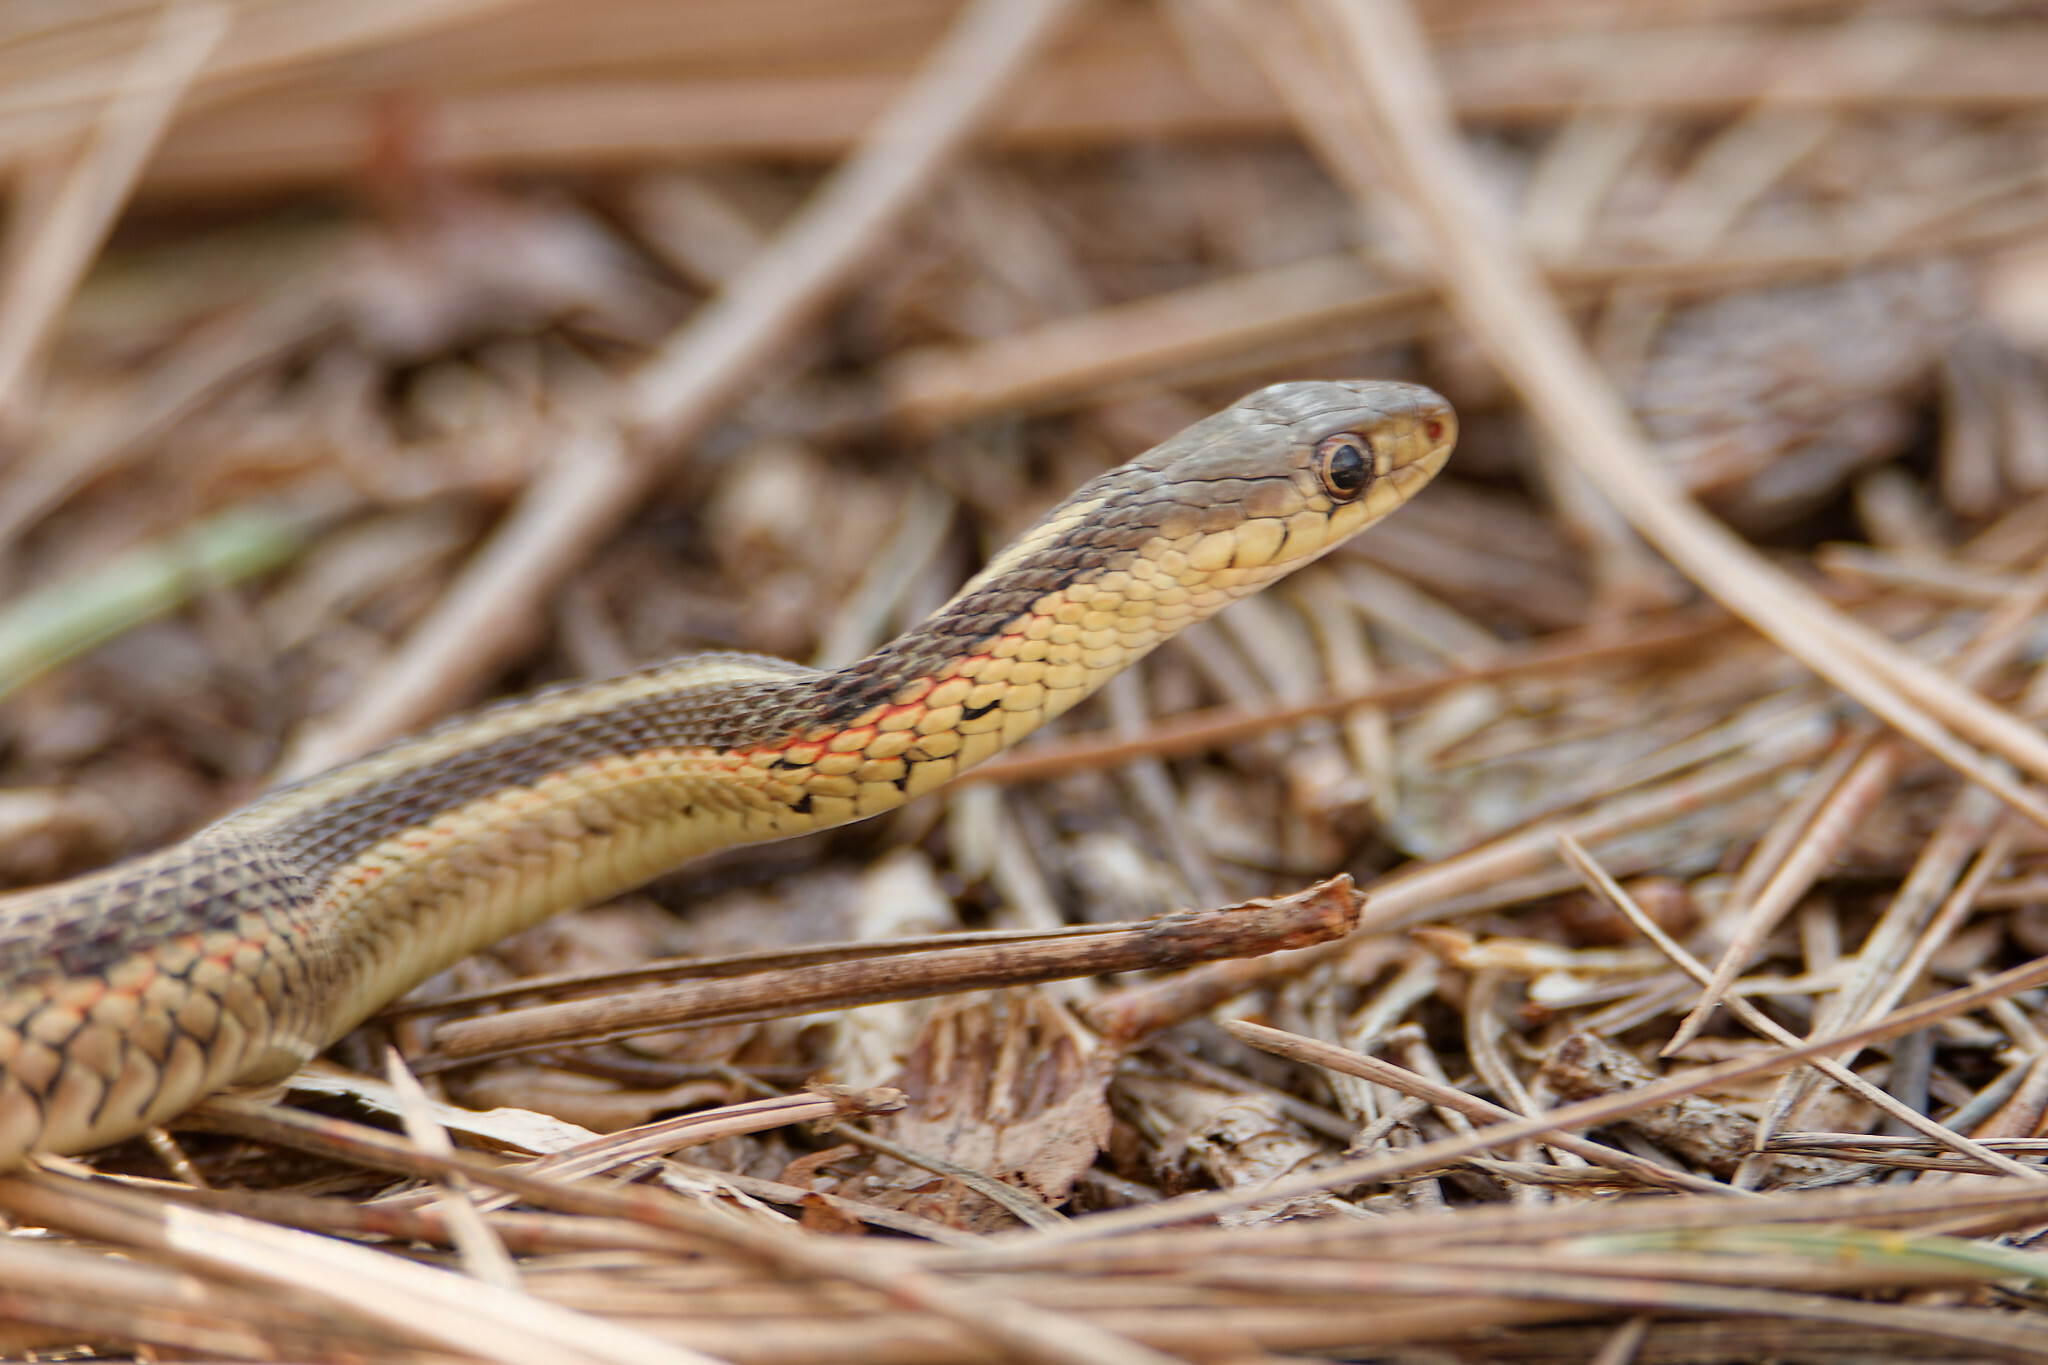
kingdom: Animalia
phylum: Chordata
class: Squamata
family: Colubridae
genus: Thamnophis
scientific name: Thamnophis sirtalis
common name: Common garter snake
